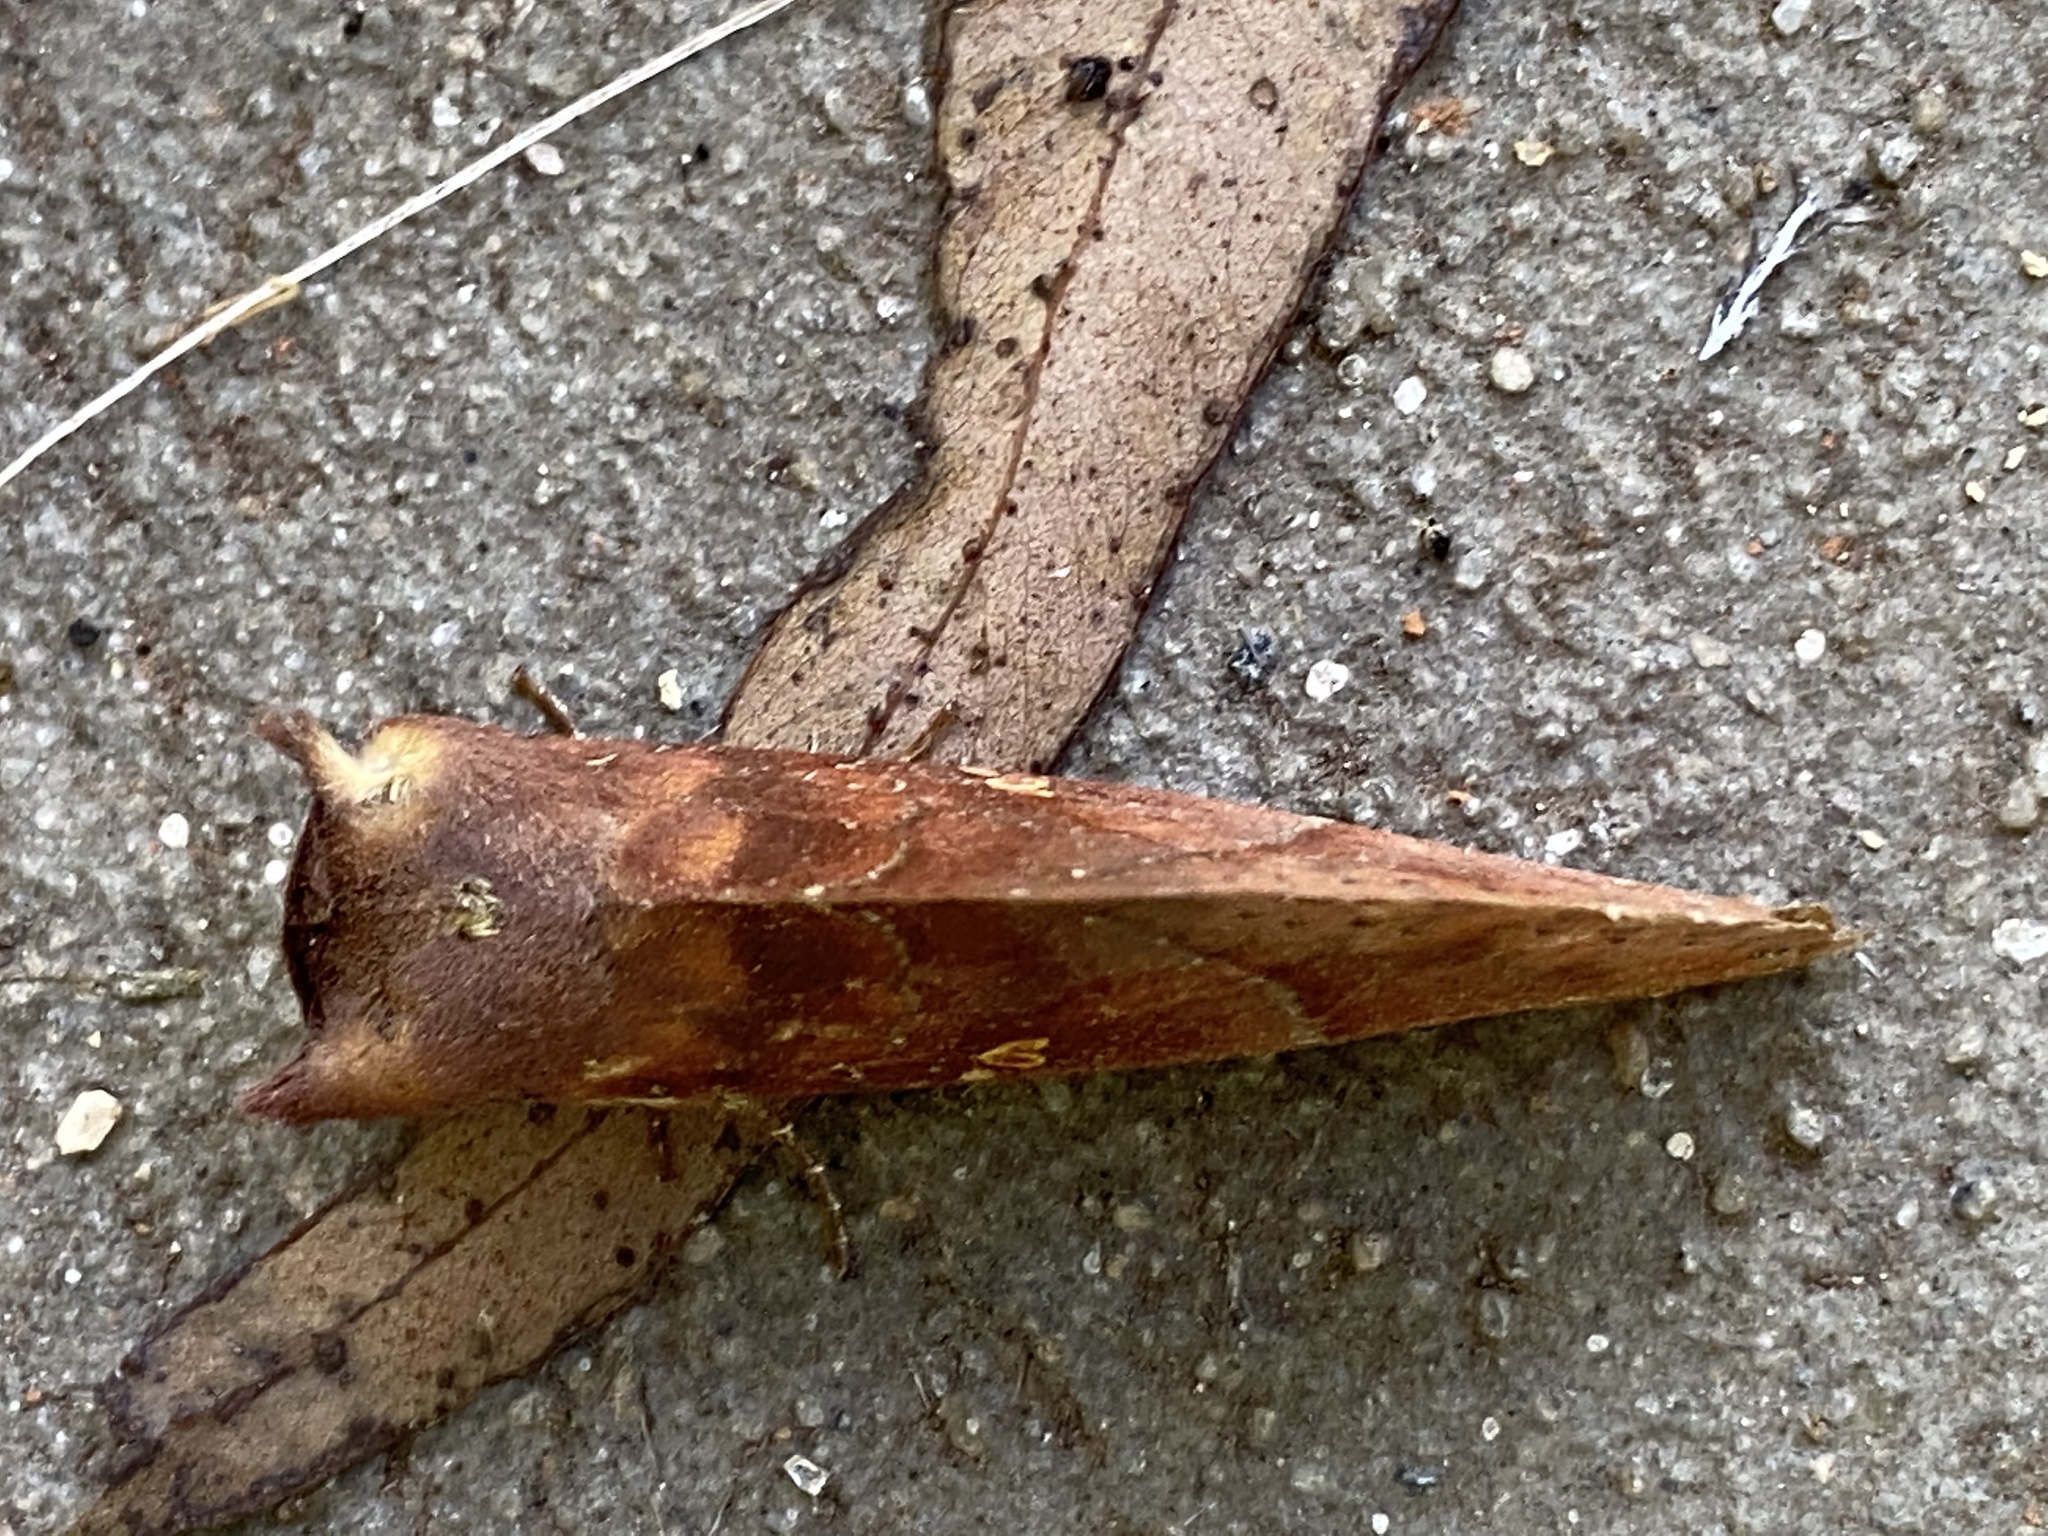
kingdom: Animalia
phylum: Arthropoda
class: Insecta
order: Lepidoptera
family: Notodontidae
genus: Hapigia
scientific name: Hapigia simplex
